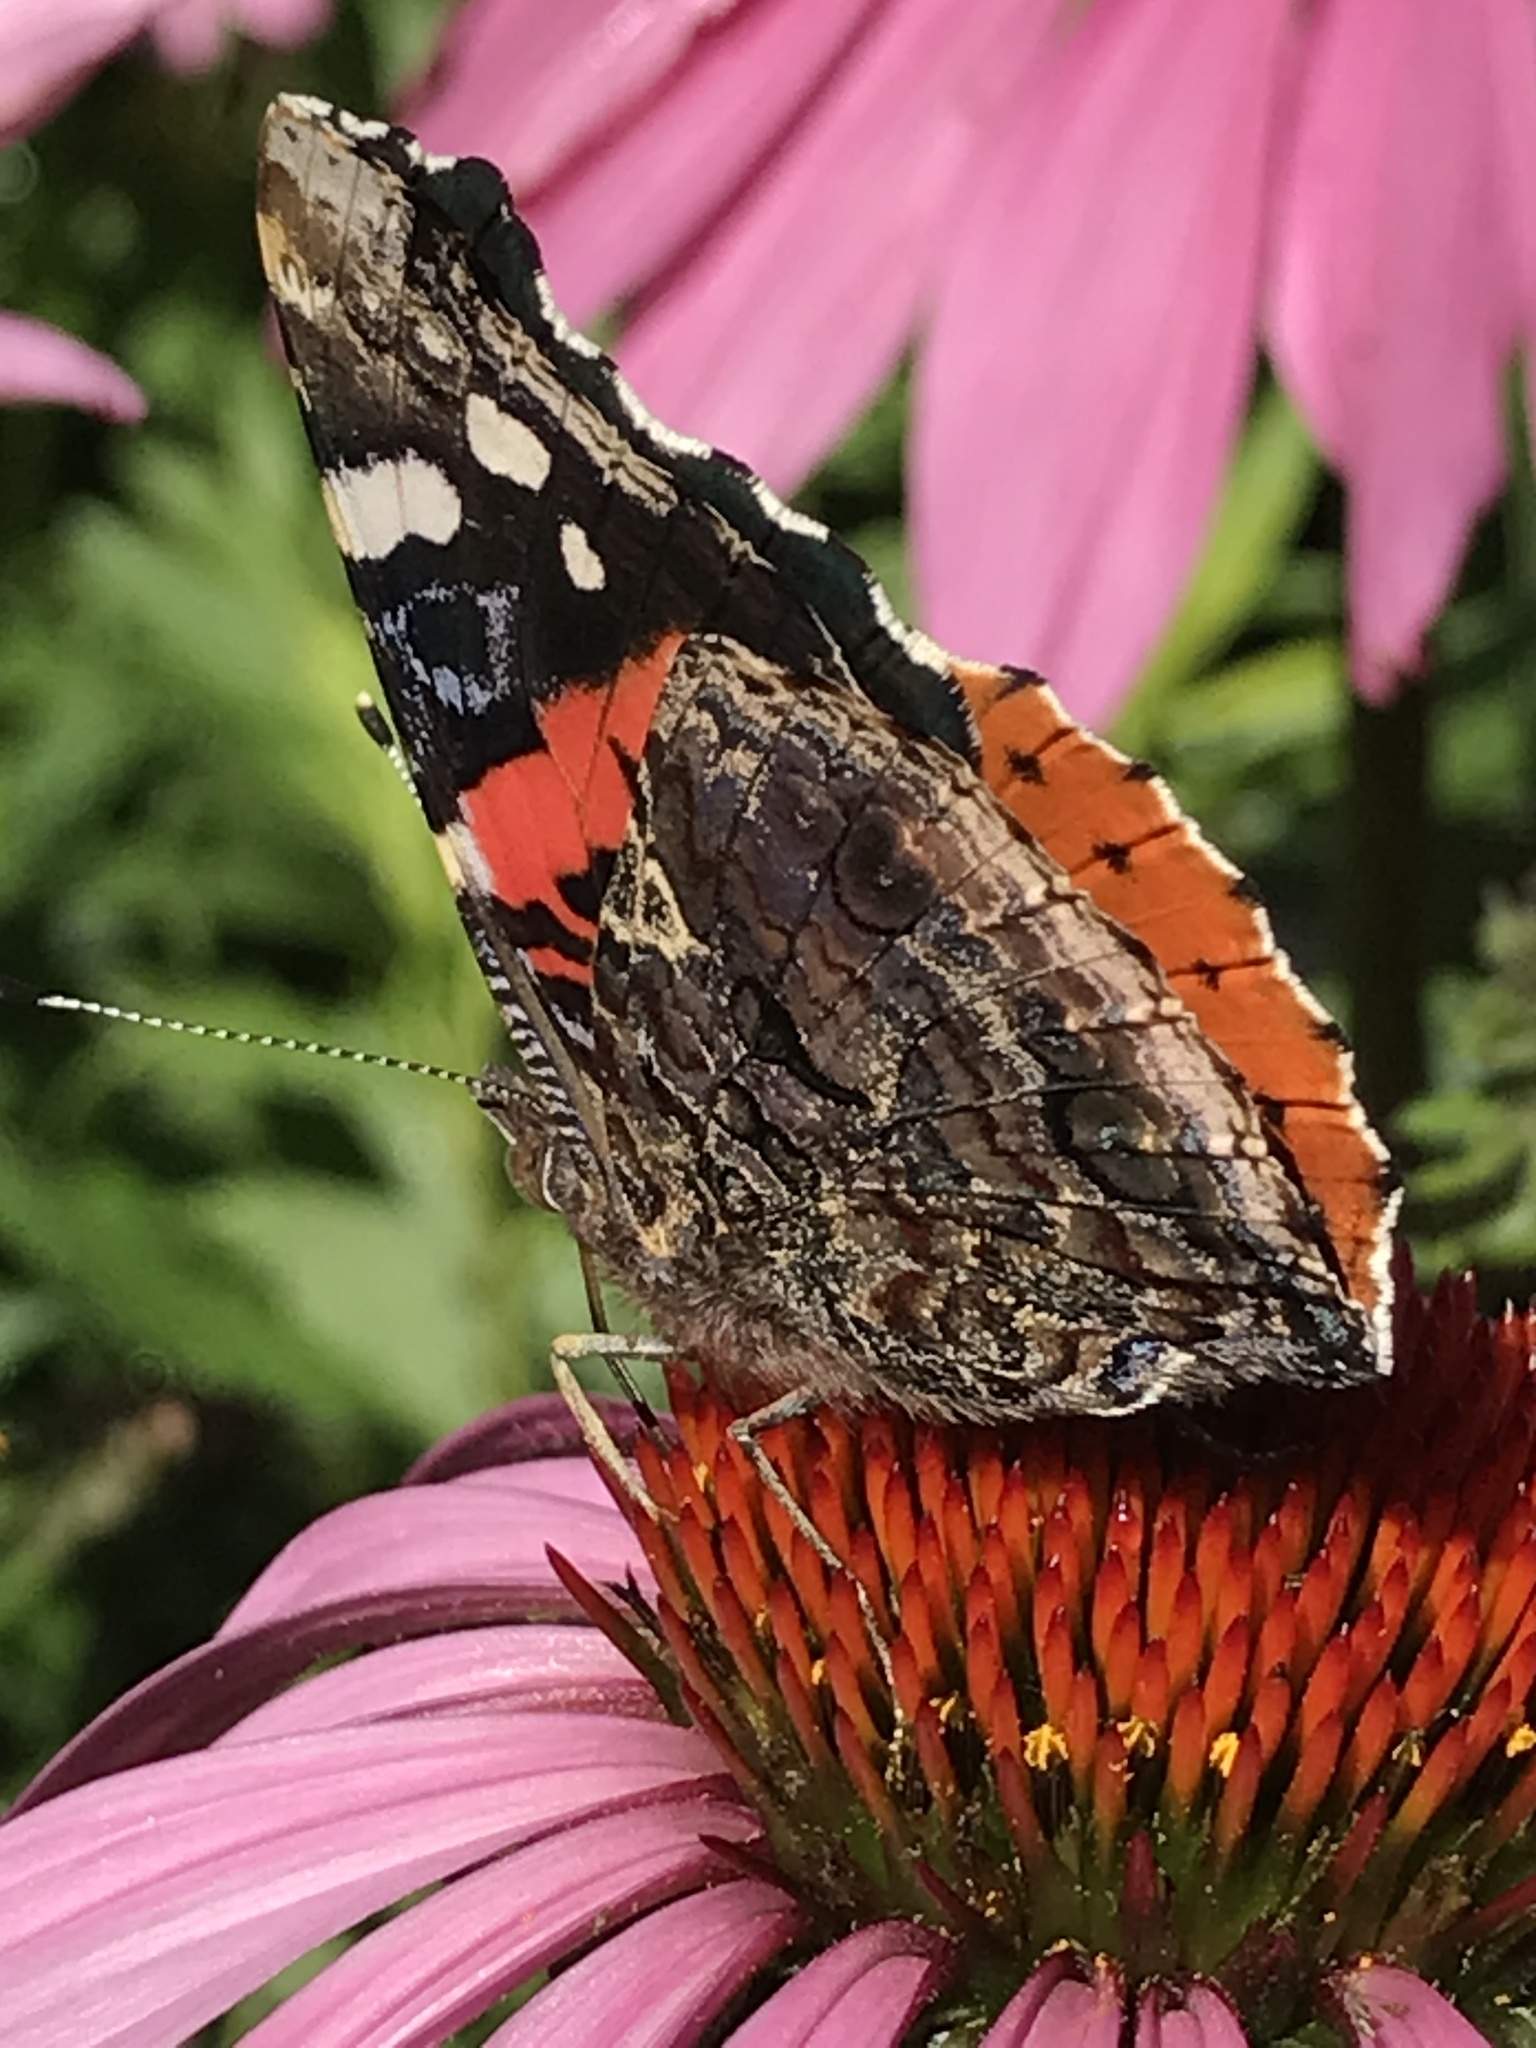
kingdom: Animalia
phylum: Arthropoda
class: Insecta
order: Lepidoptera
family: Nymphalidae
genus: Vanessa
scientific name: Vanessa atalanta
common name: Red admiral
